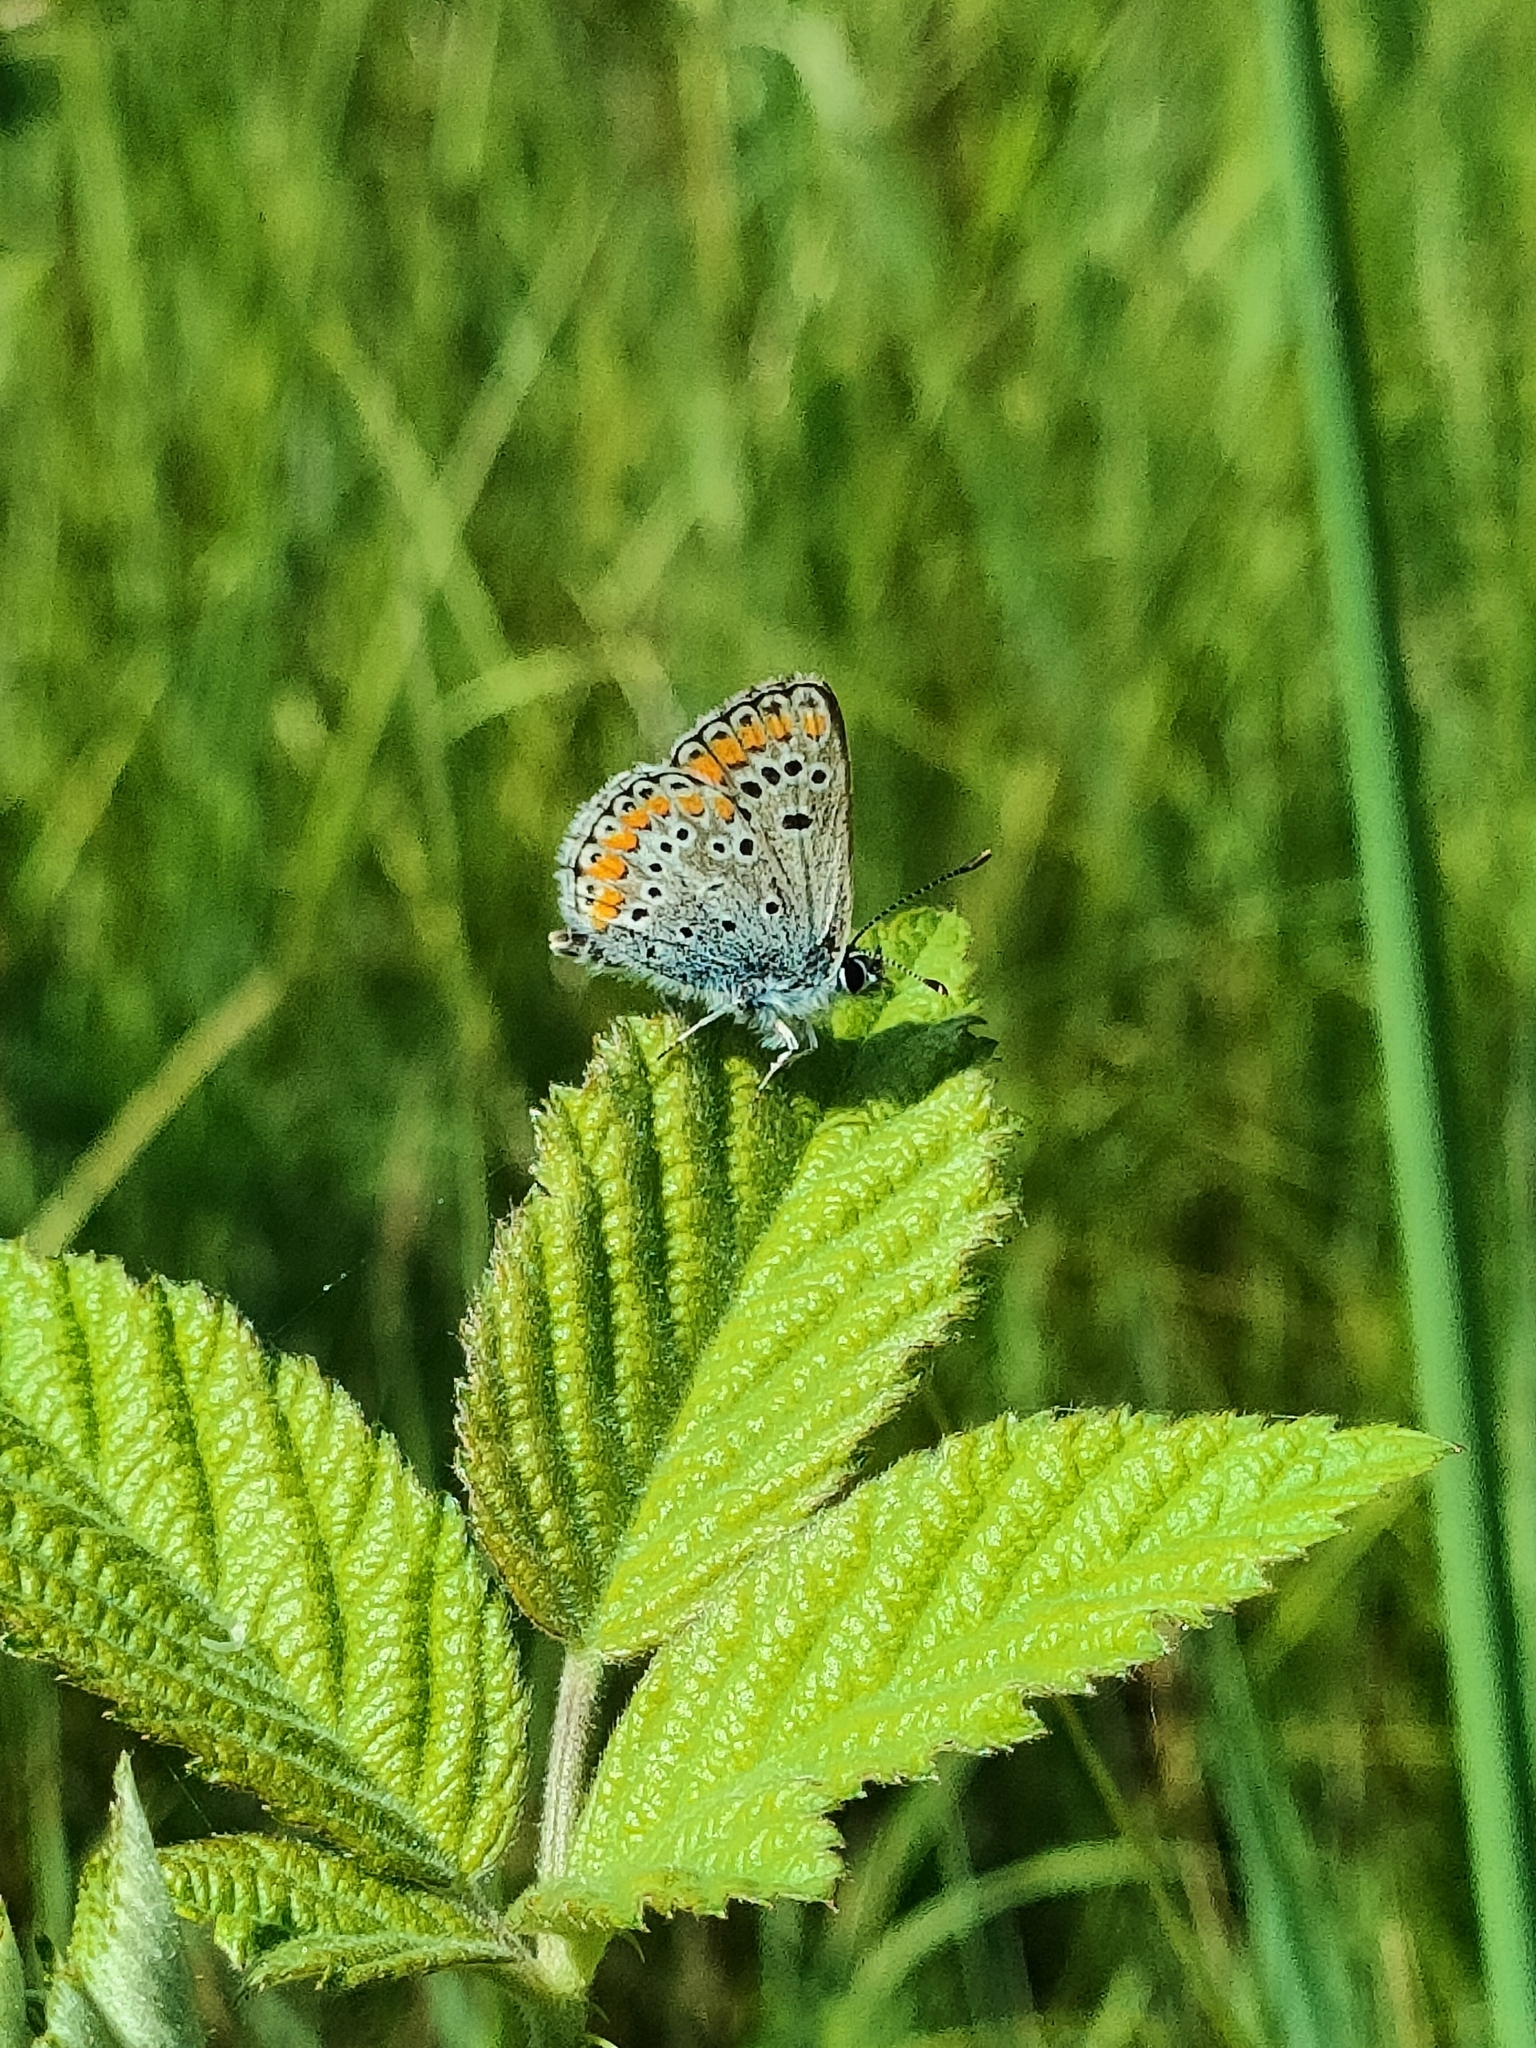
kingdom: Animalia
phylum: Arthropoda
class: Insecta
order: Lepidoptera
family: Lycaenidae
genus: Aricia
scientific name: Aricia agestis
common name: Brown argus
